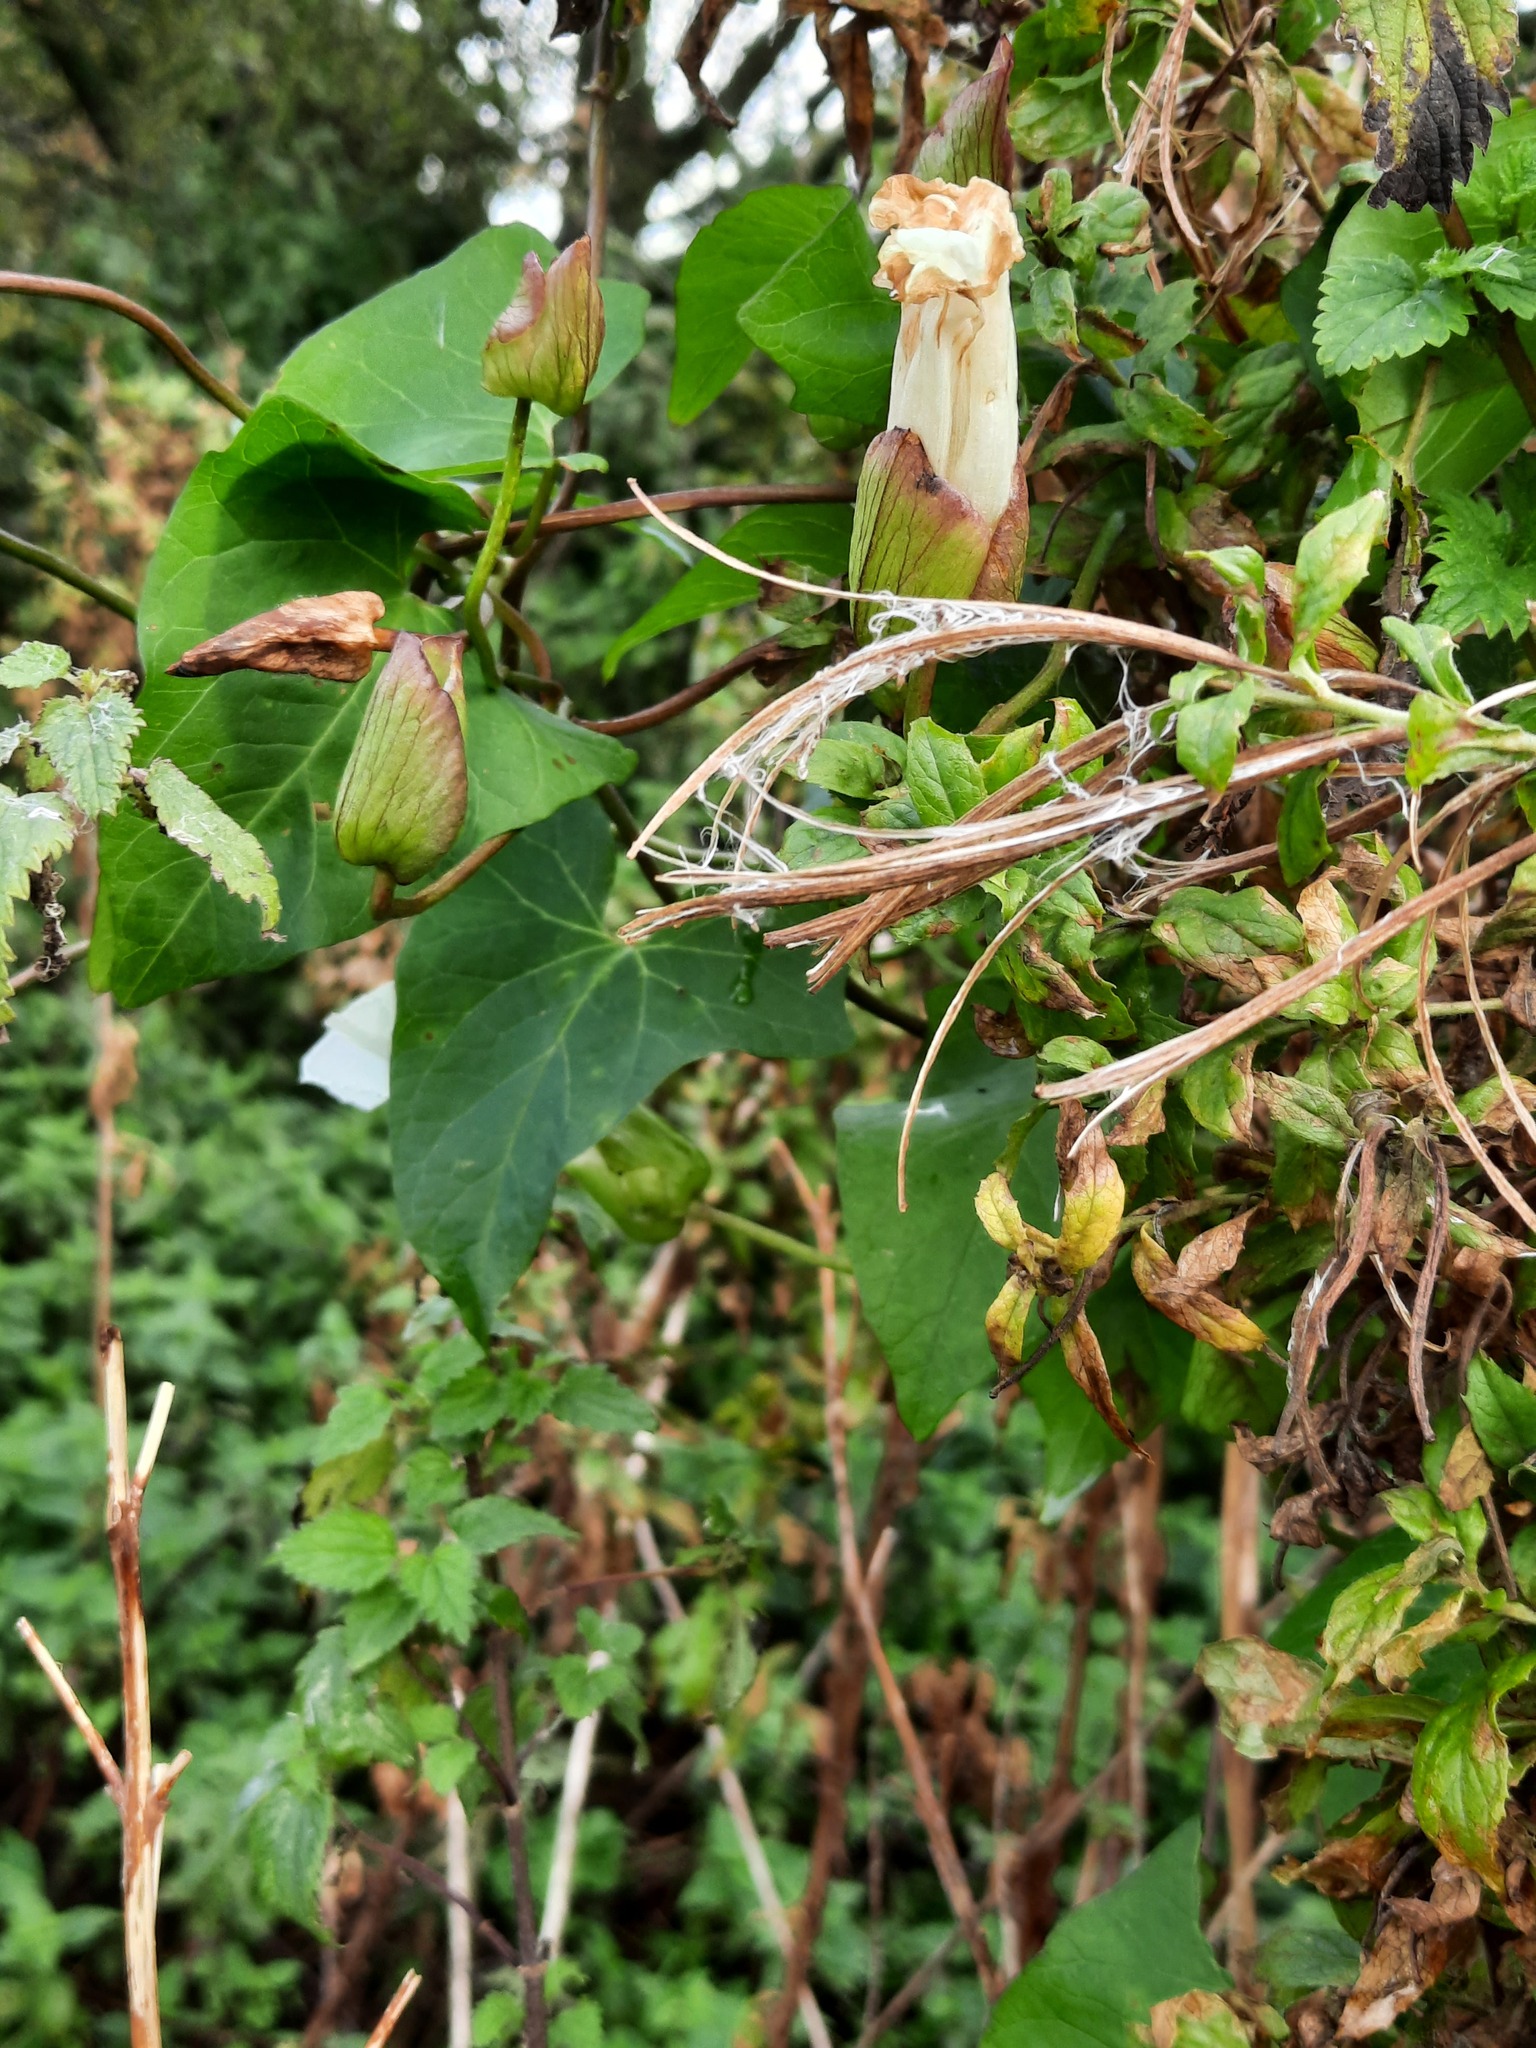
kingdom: Plantae
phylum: Tracheophyta
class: Magnoliopsida
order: Solanales
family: Convolvulaceae
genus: Calystegia
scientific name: Calystegia silvatica
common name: Large bindweed
